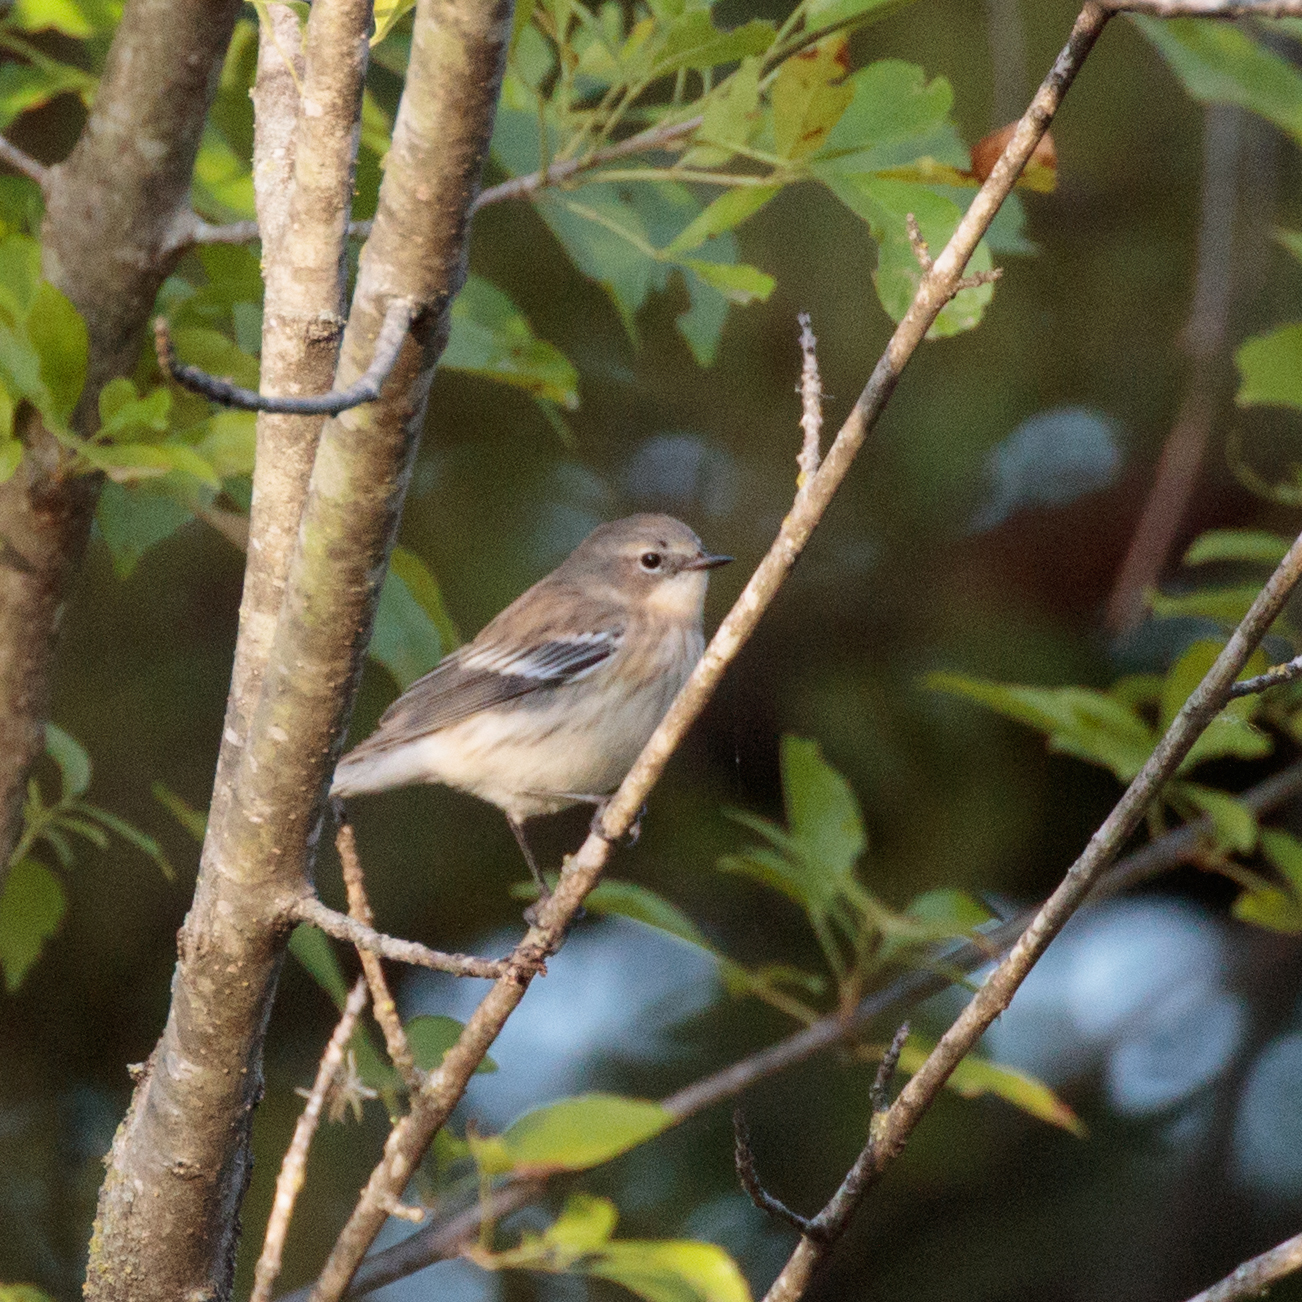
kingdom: Animalia
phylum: Chordata
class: Aves
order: Passeriformes
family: Parulidae
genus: Setophaga
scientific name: Setophaga coronata
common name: Myrtle warbler
